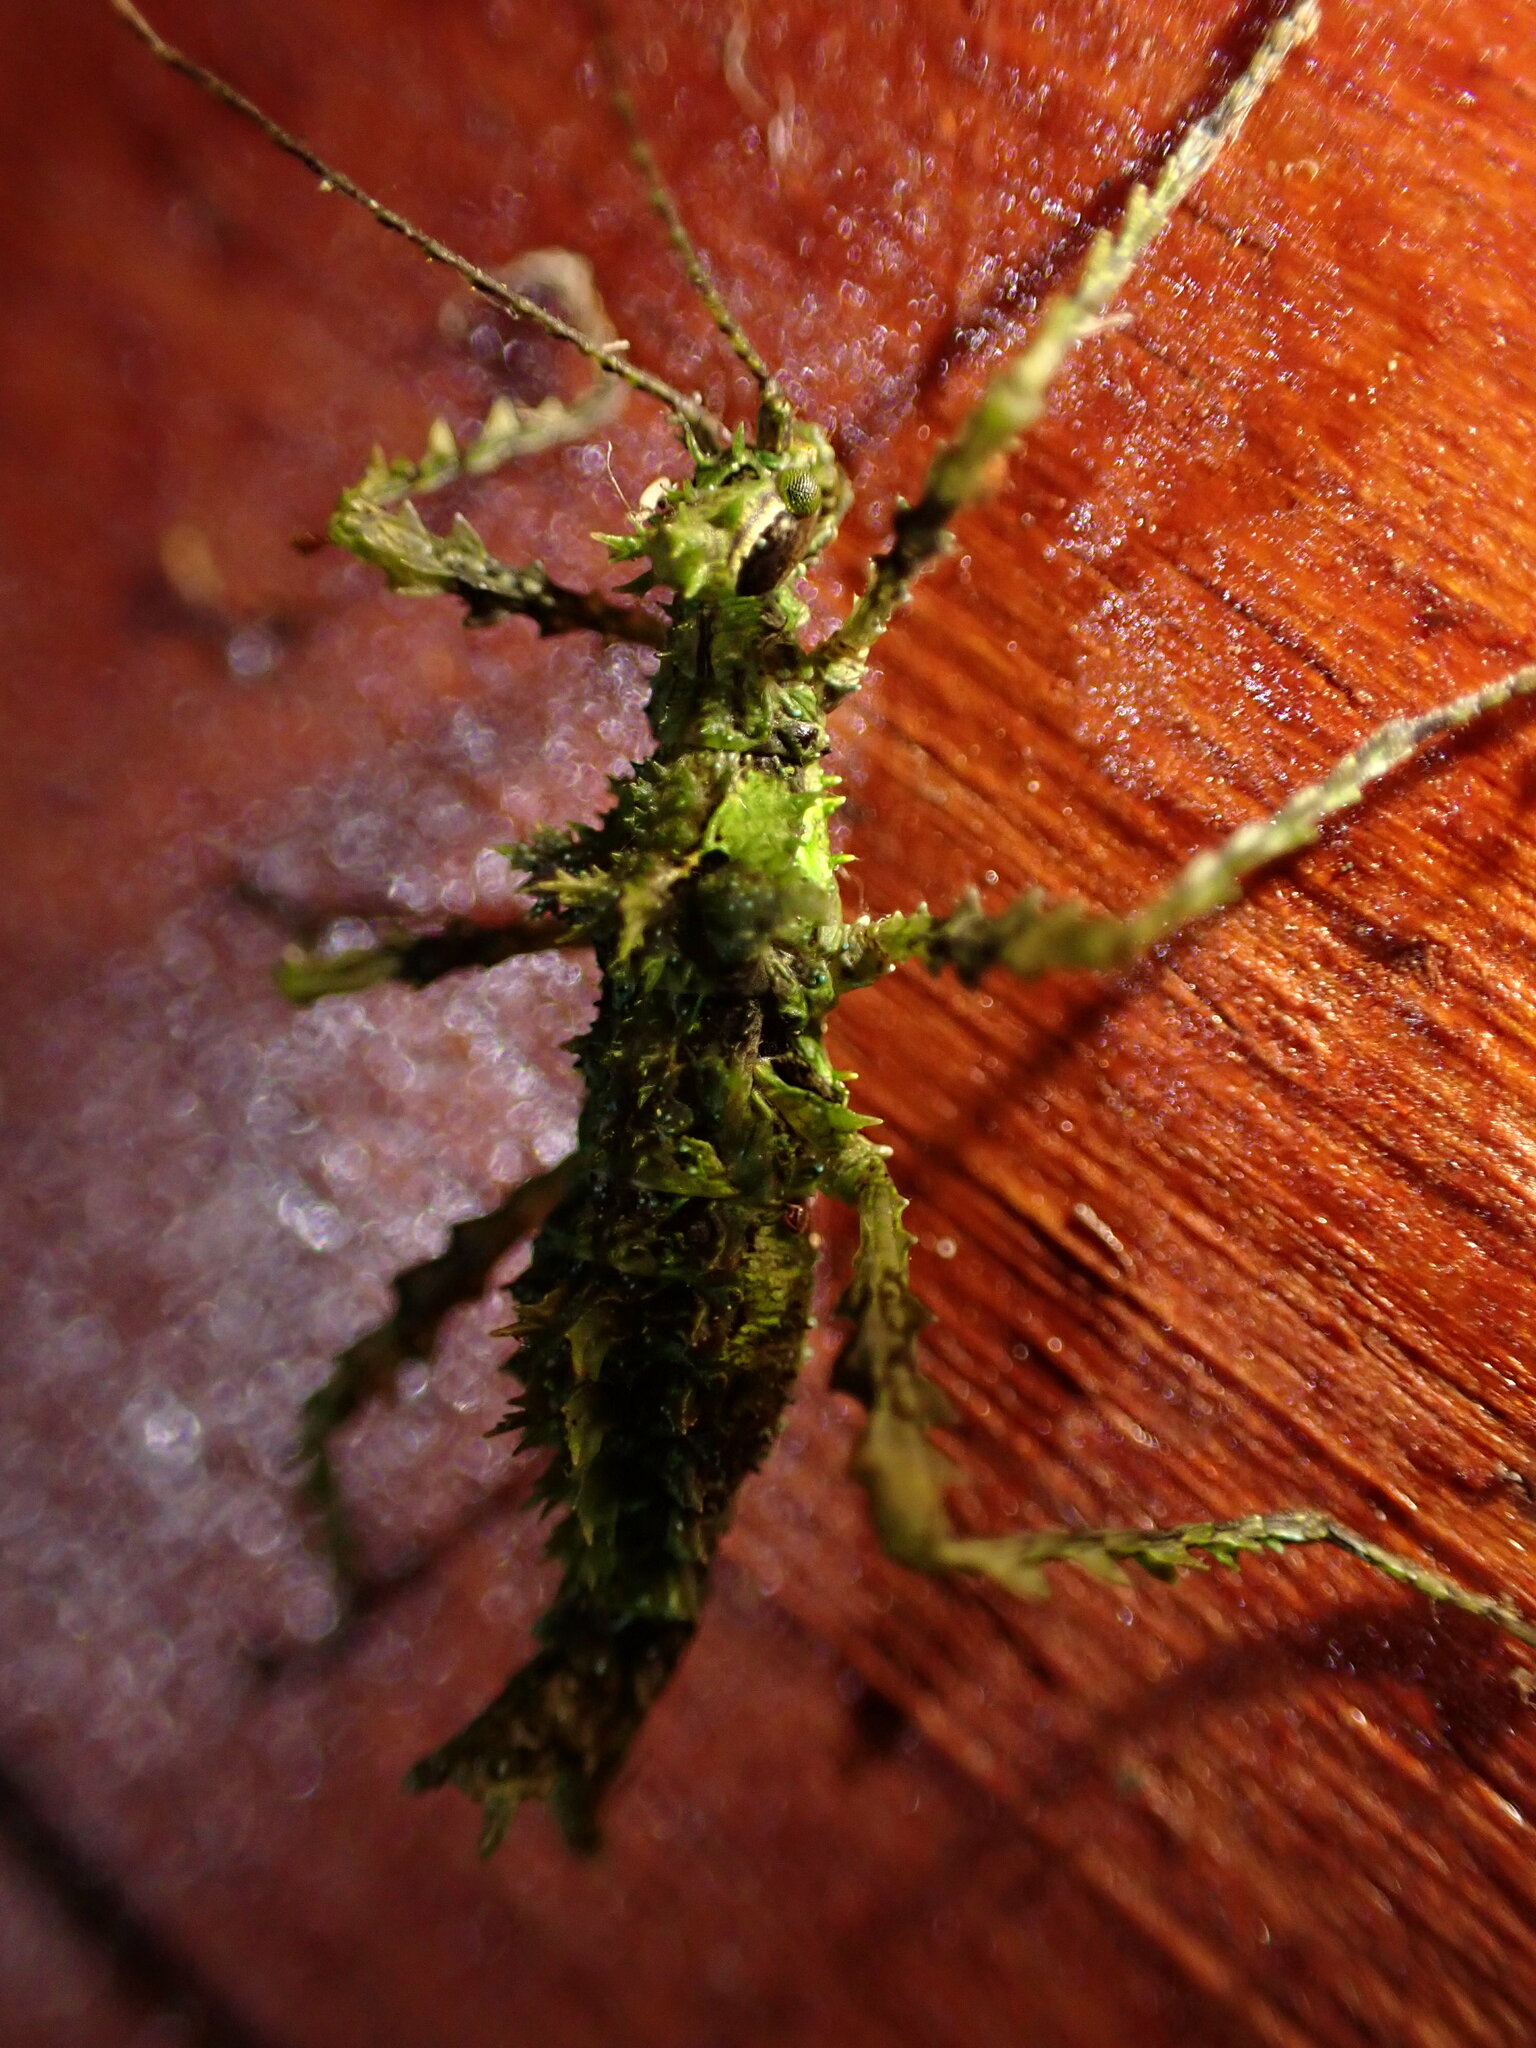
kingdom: Animalia
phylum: Arthropoda
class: Insecta
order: Phasmida
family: Pseudophasmatidae
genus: Mirophasma
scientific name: Mirophasma erinaceum
